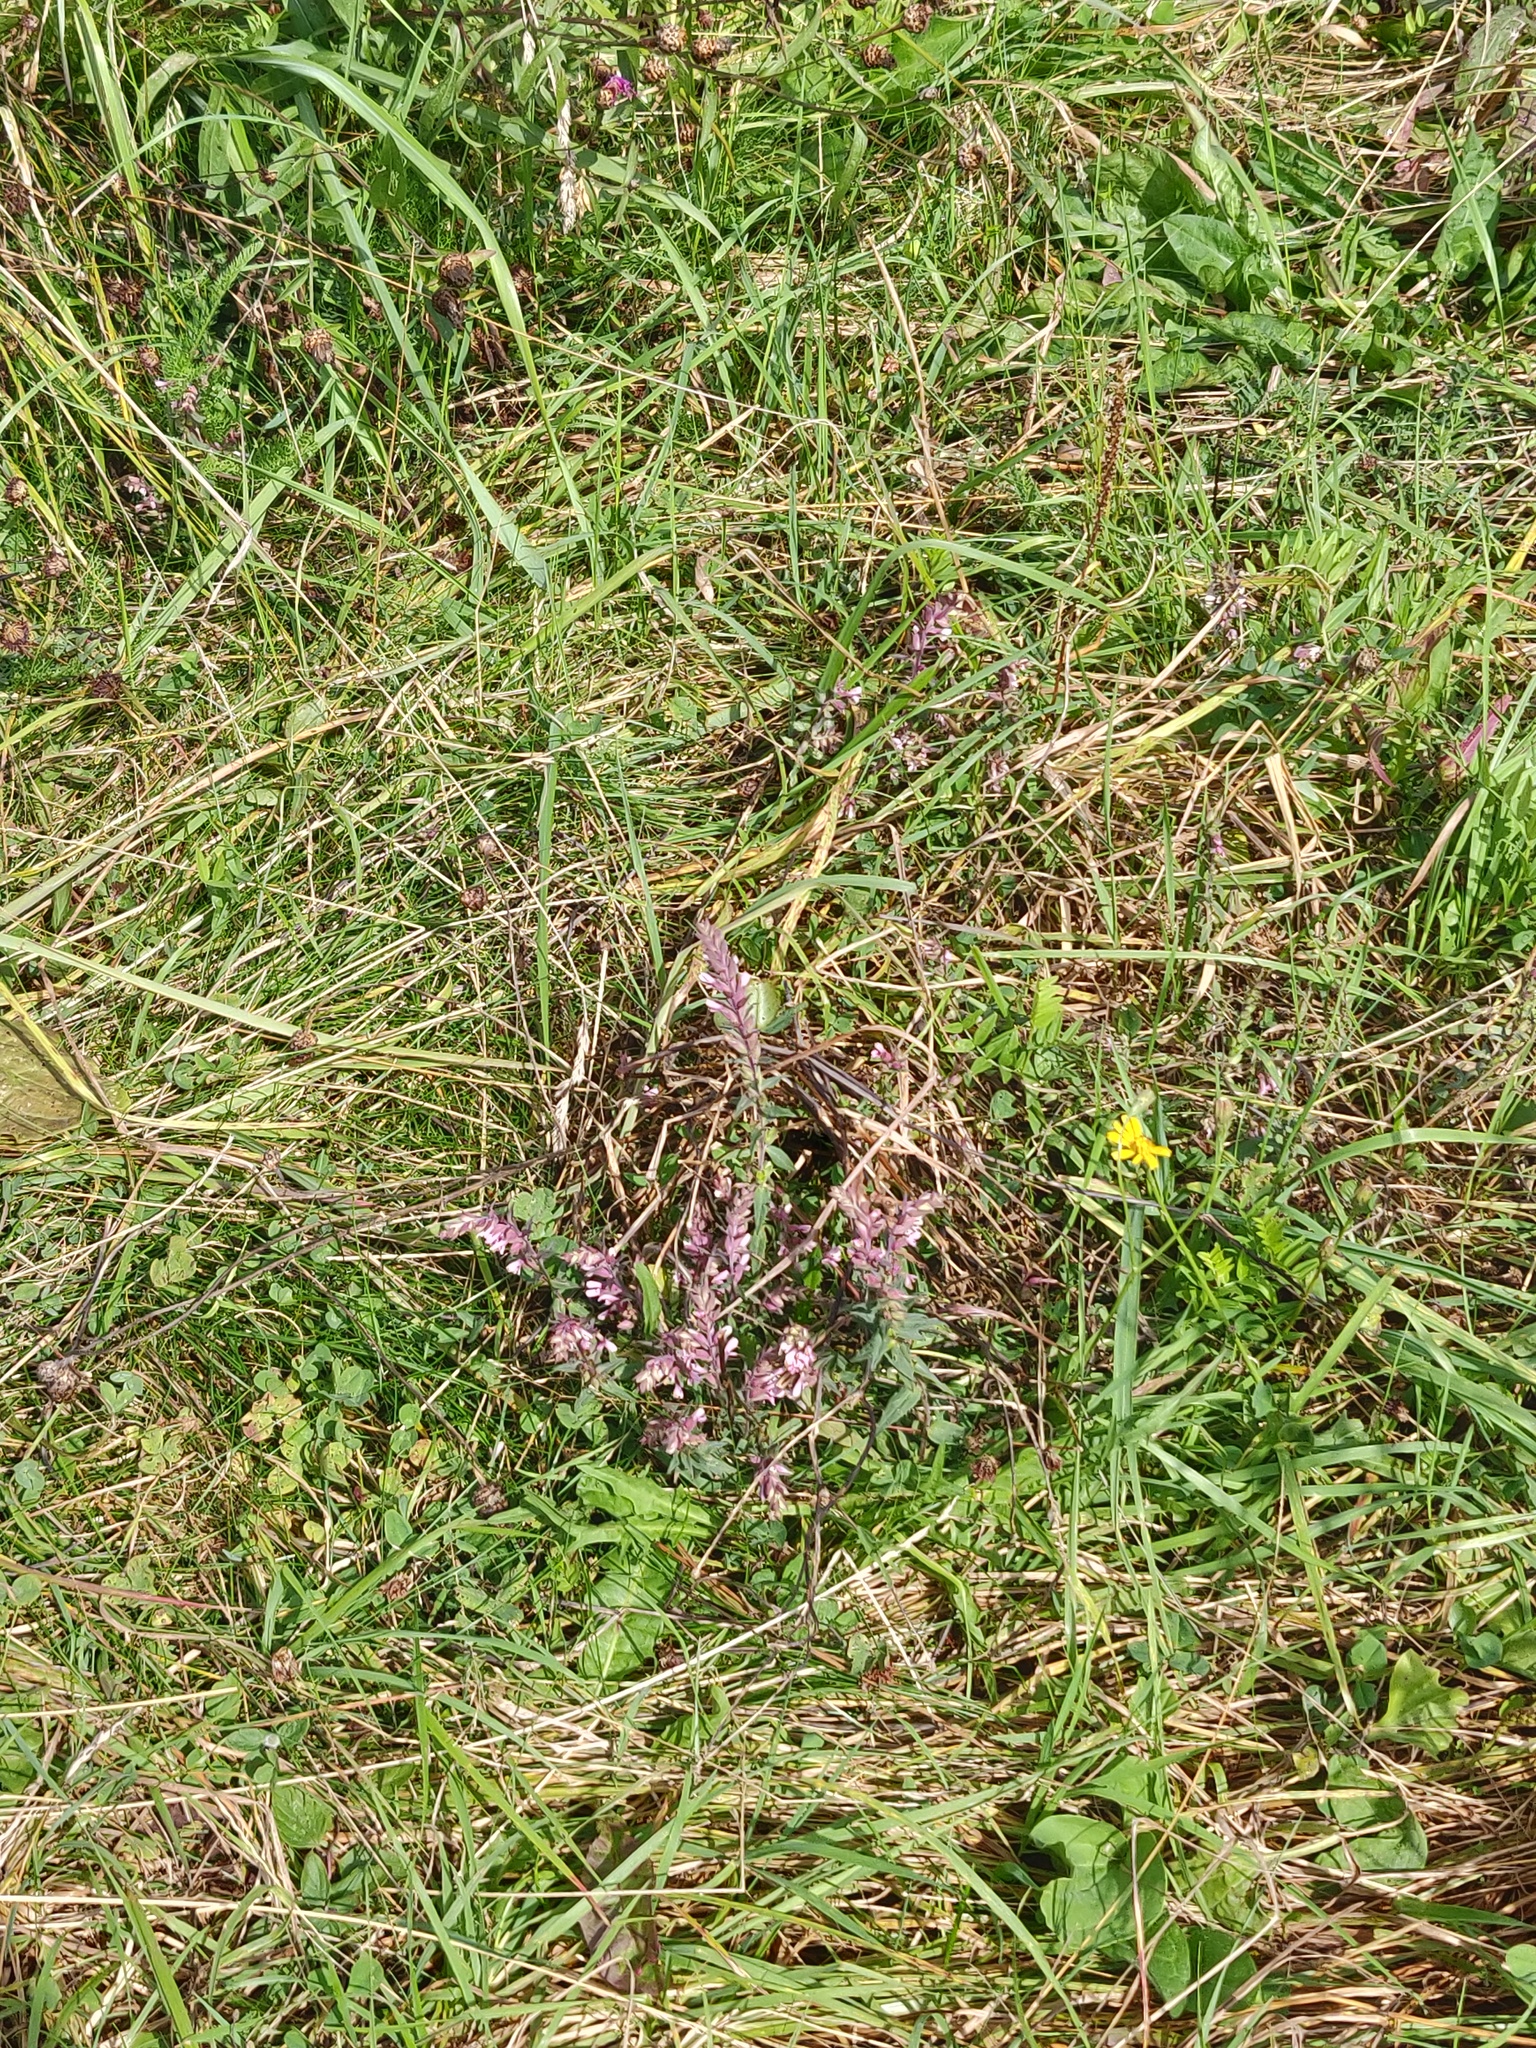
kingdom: Plantae
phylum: Tracheophyta
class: Magnoliopsida
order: Lamiales
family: Orobanchaceae
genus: Odontites
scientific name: Odontites vulgaris
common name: Broomrape
